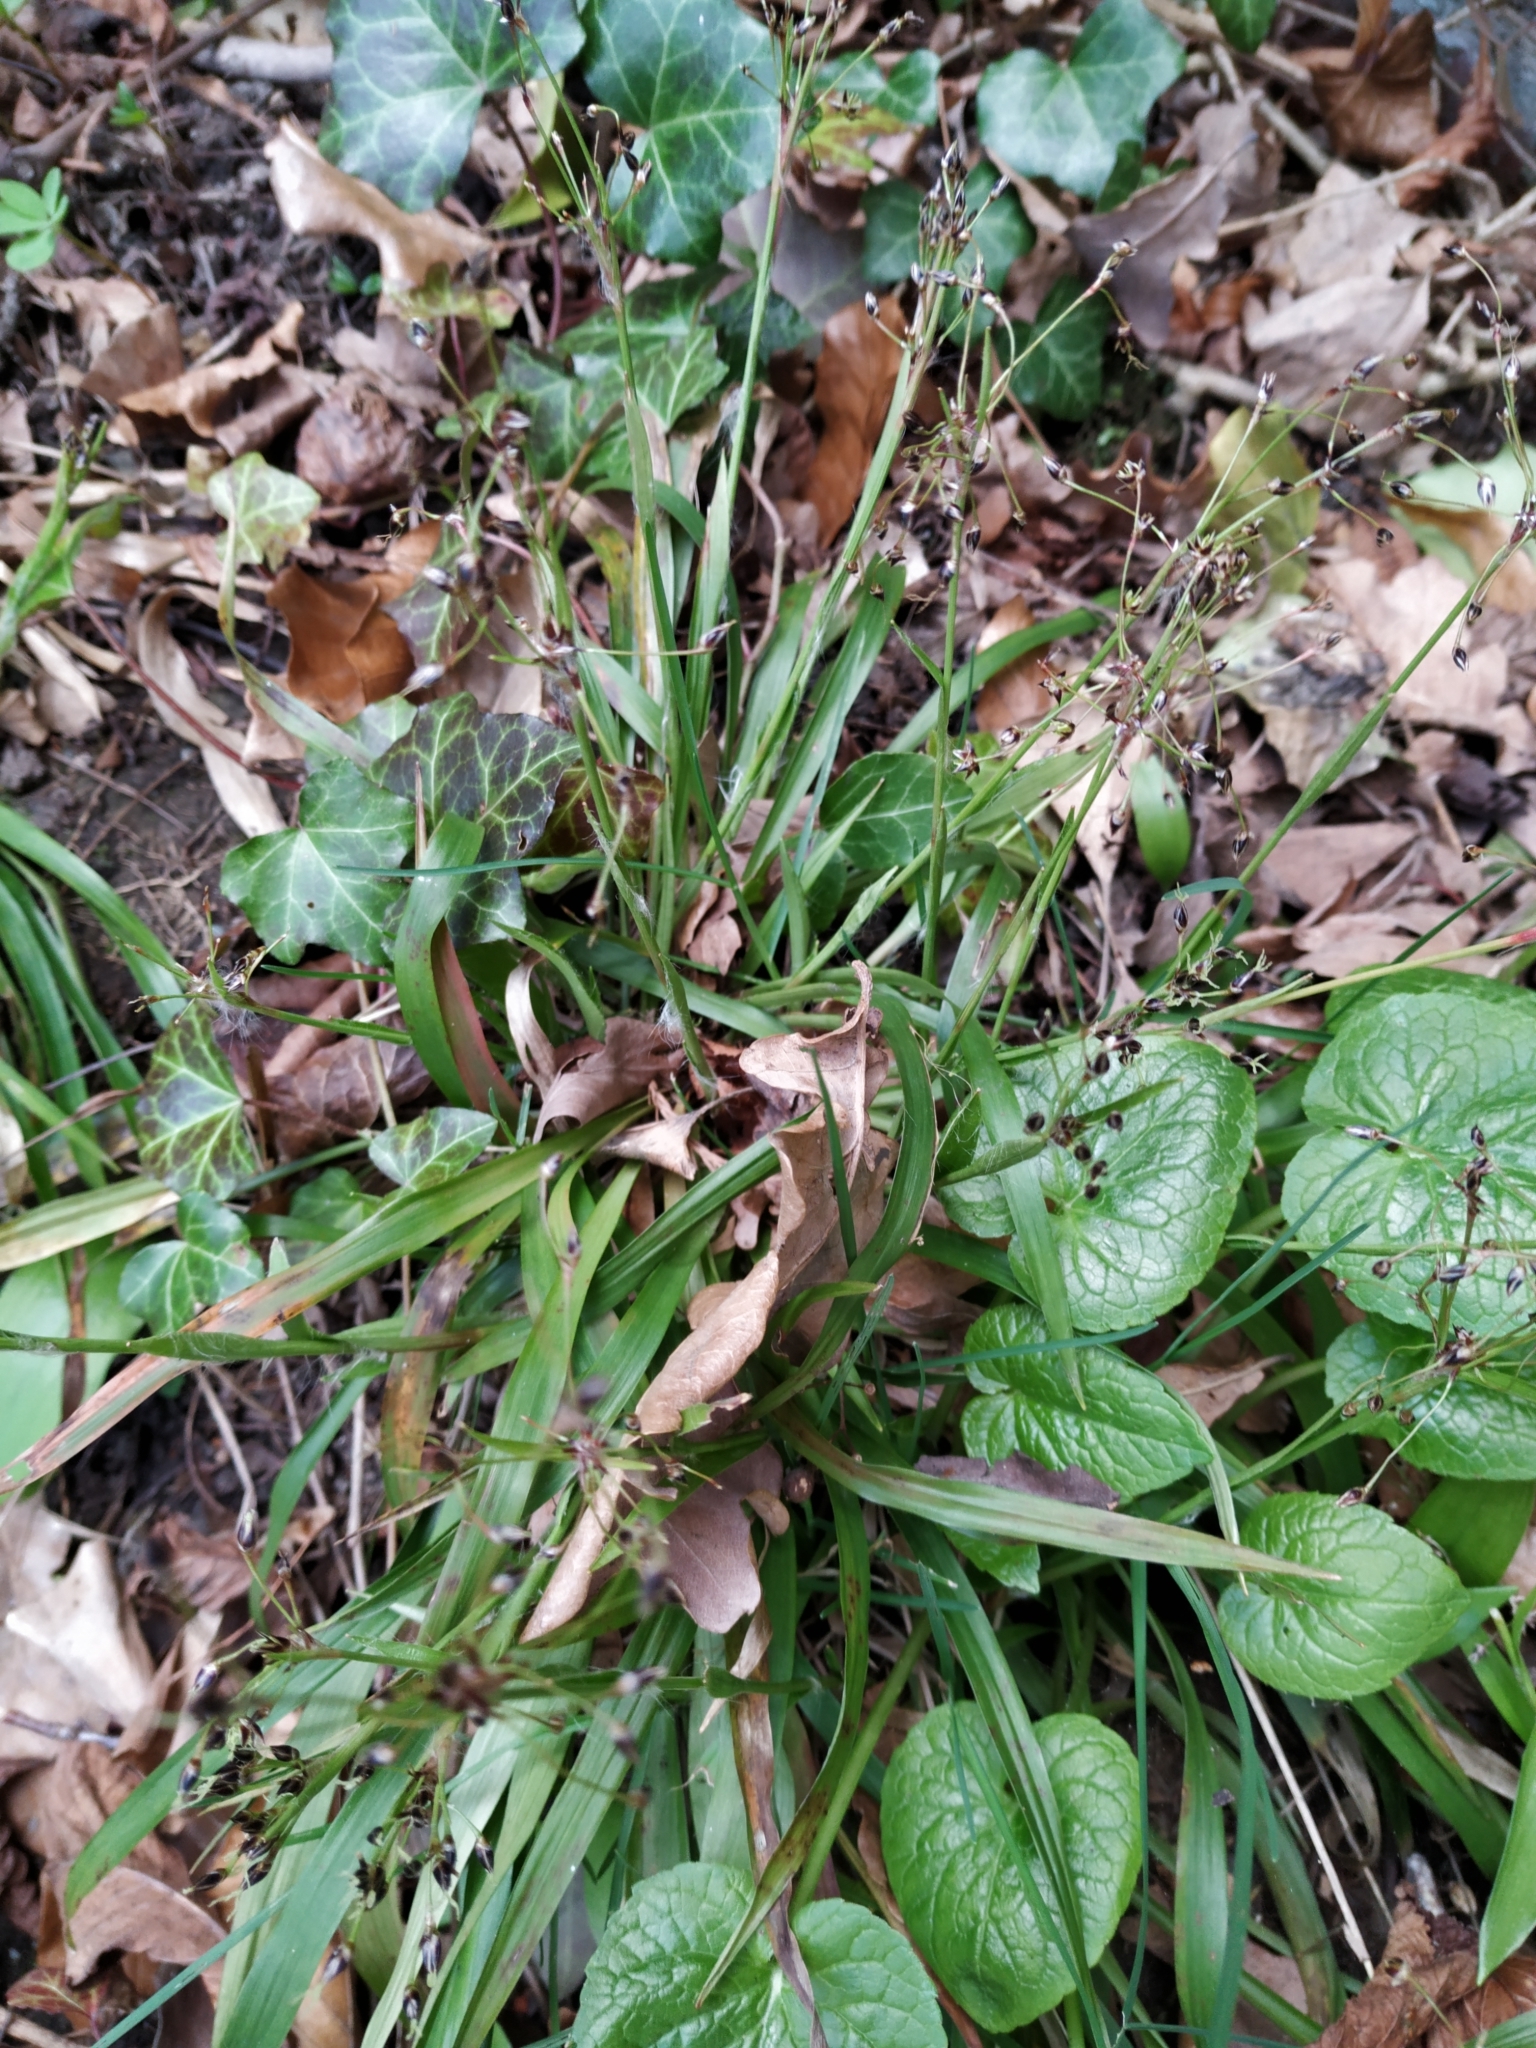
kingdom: Plantae
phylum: Tracheophyta
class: Liliopsida
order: Poales
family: Juncaceae
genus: Luzula
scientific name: Luzula pilosa
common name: Hairy wood-rush
